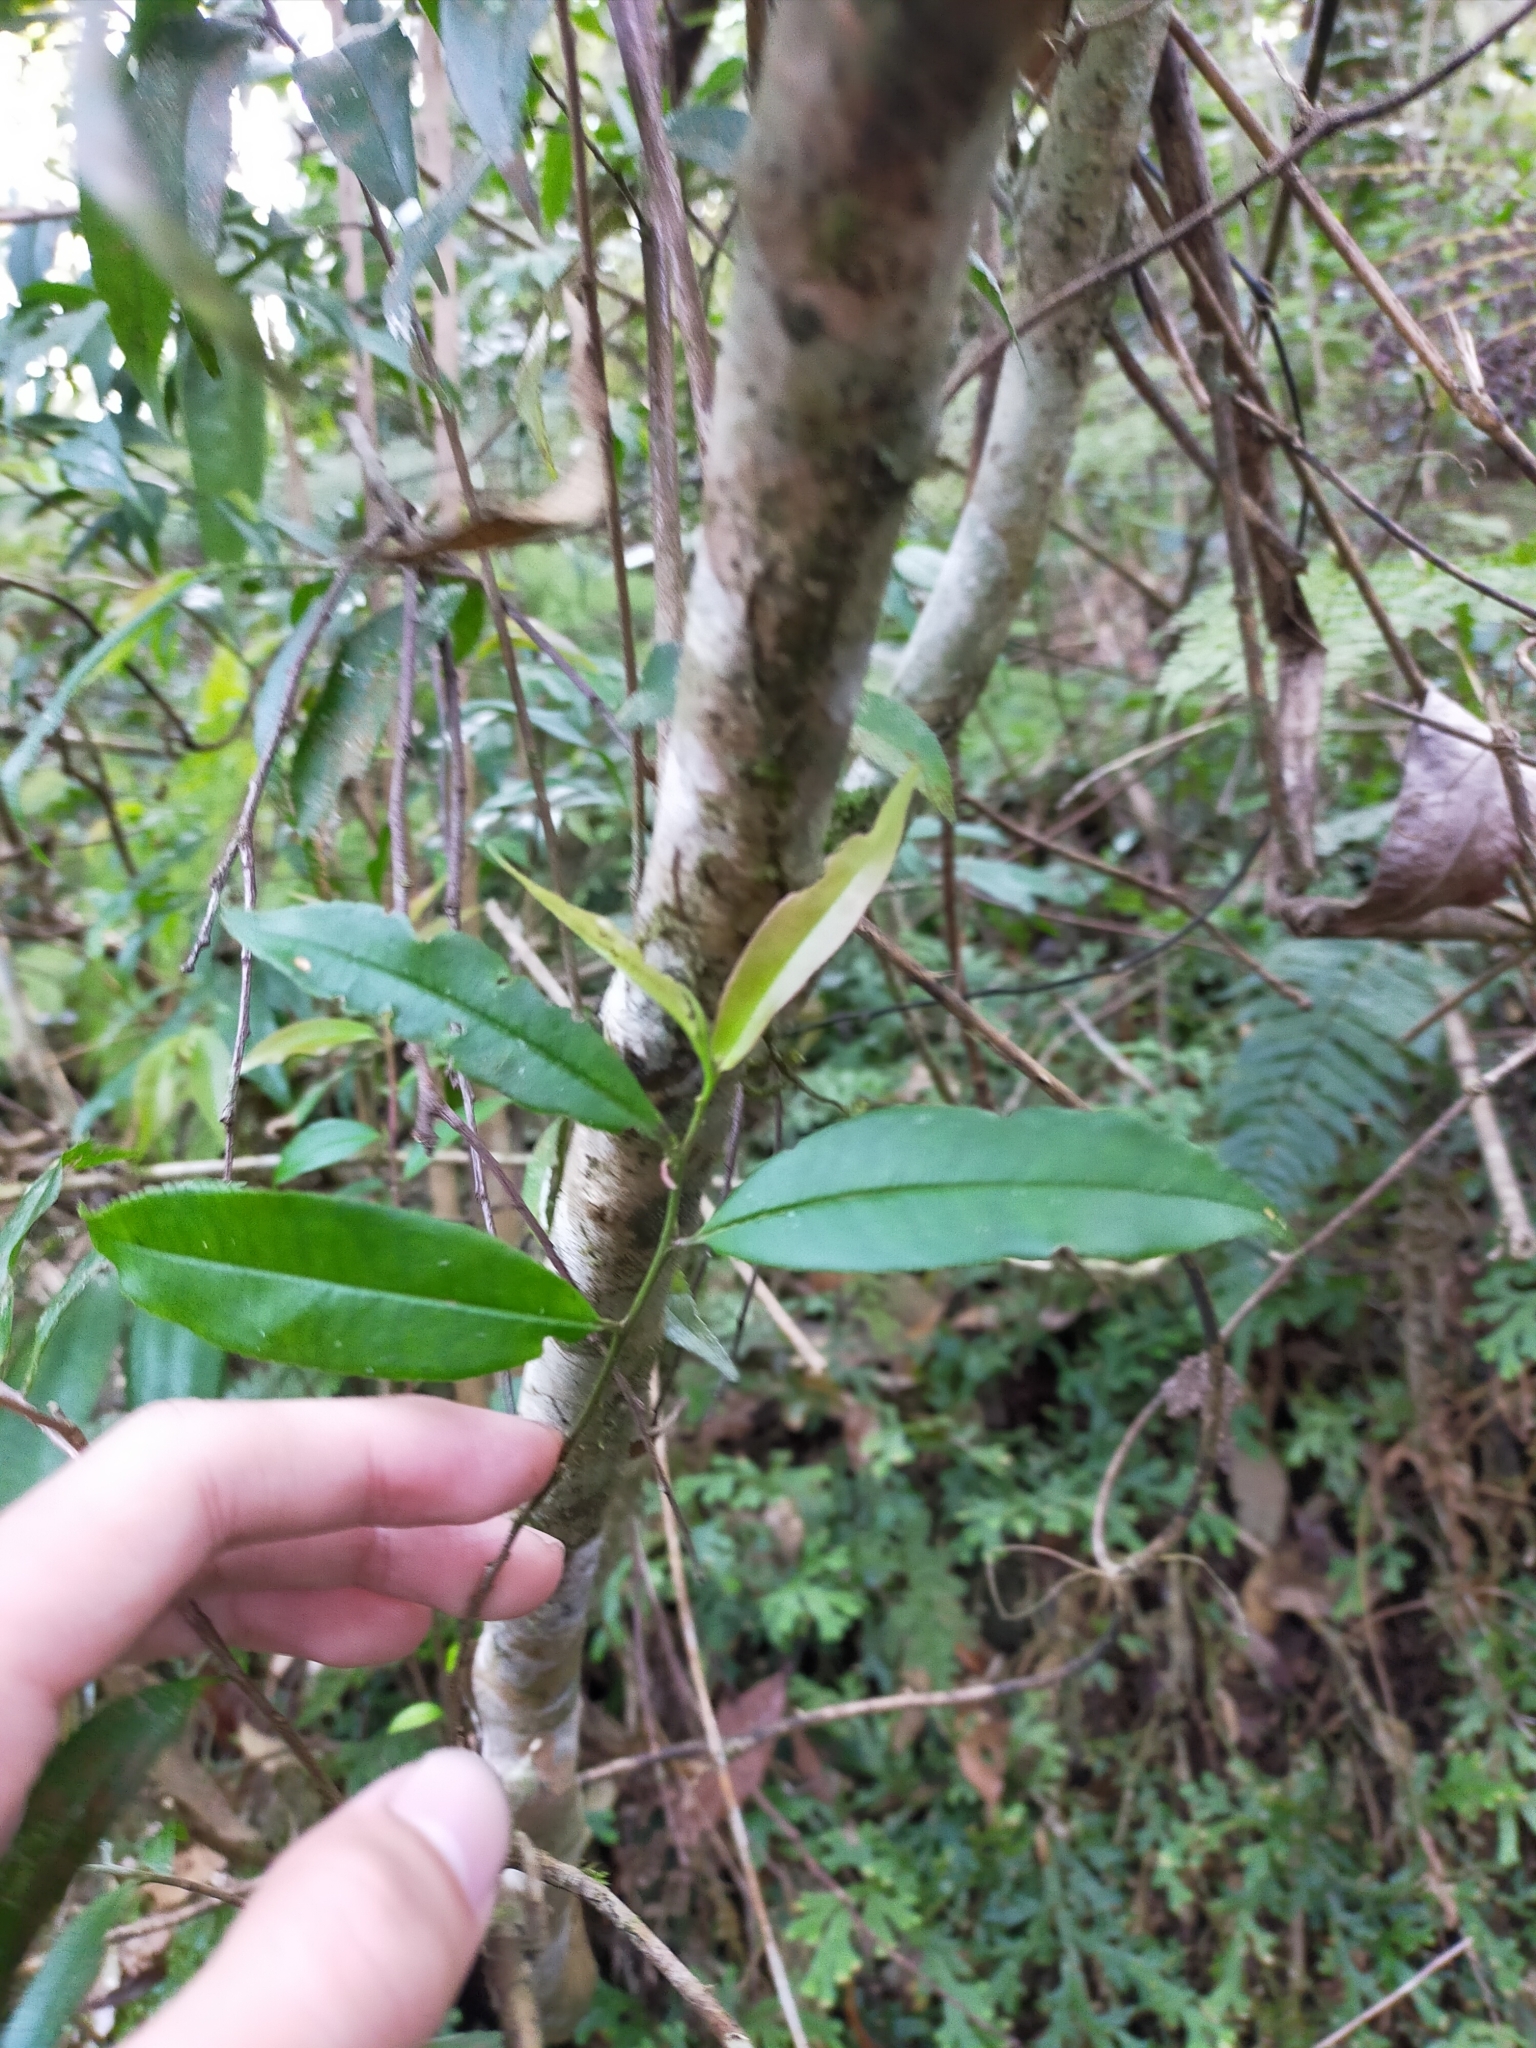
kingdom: Plantae
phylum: Tracheophyta
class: Magnoliopsida
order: Ericales
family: Pentaphylacaceae
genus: Eurya
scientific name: Eurya loquaiana
